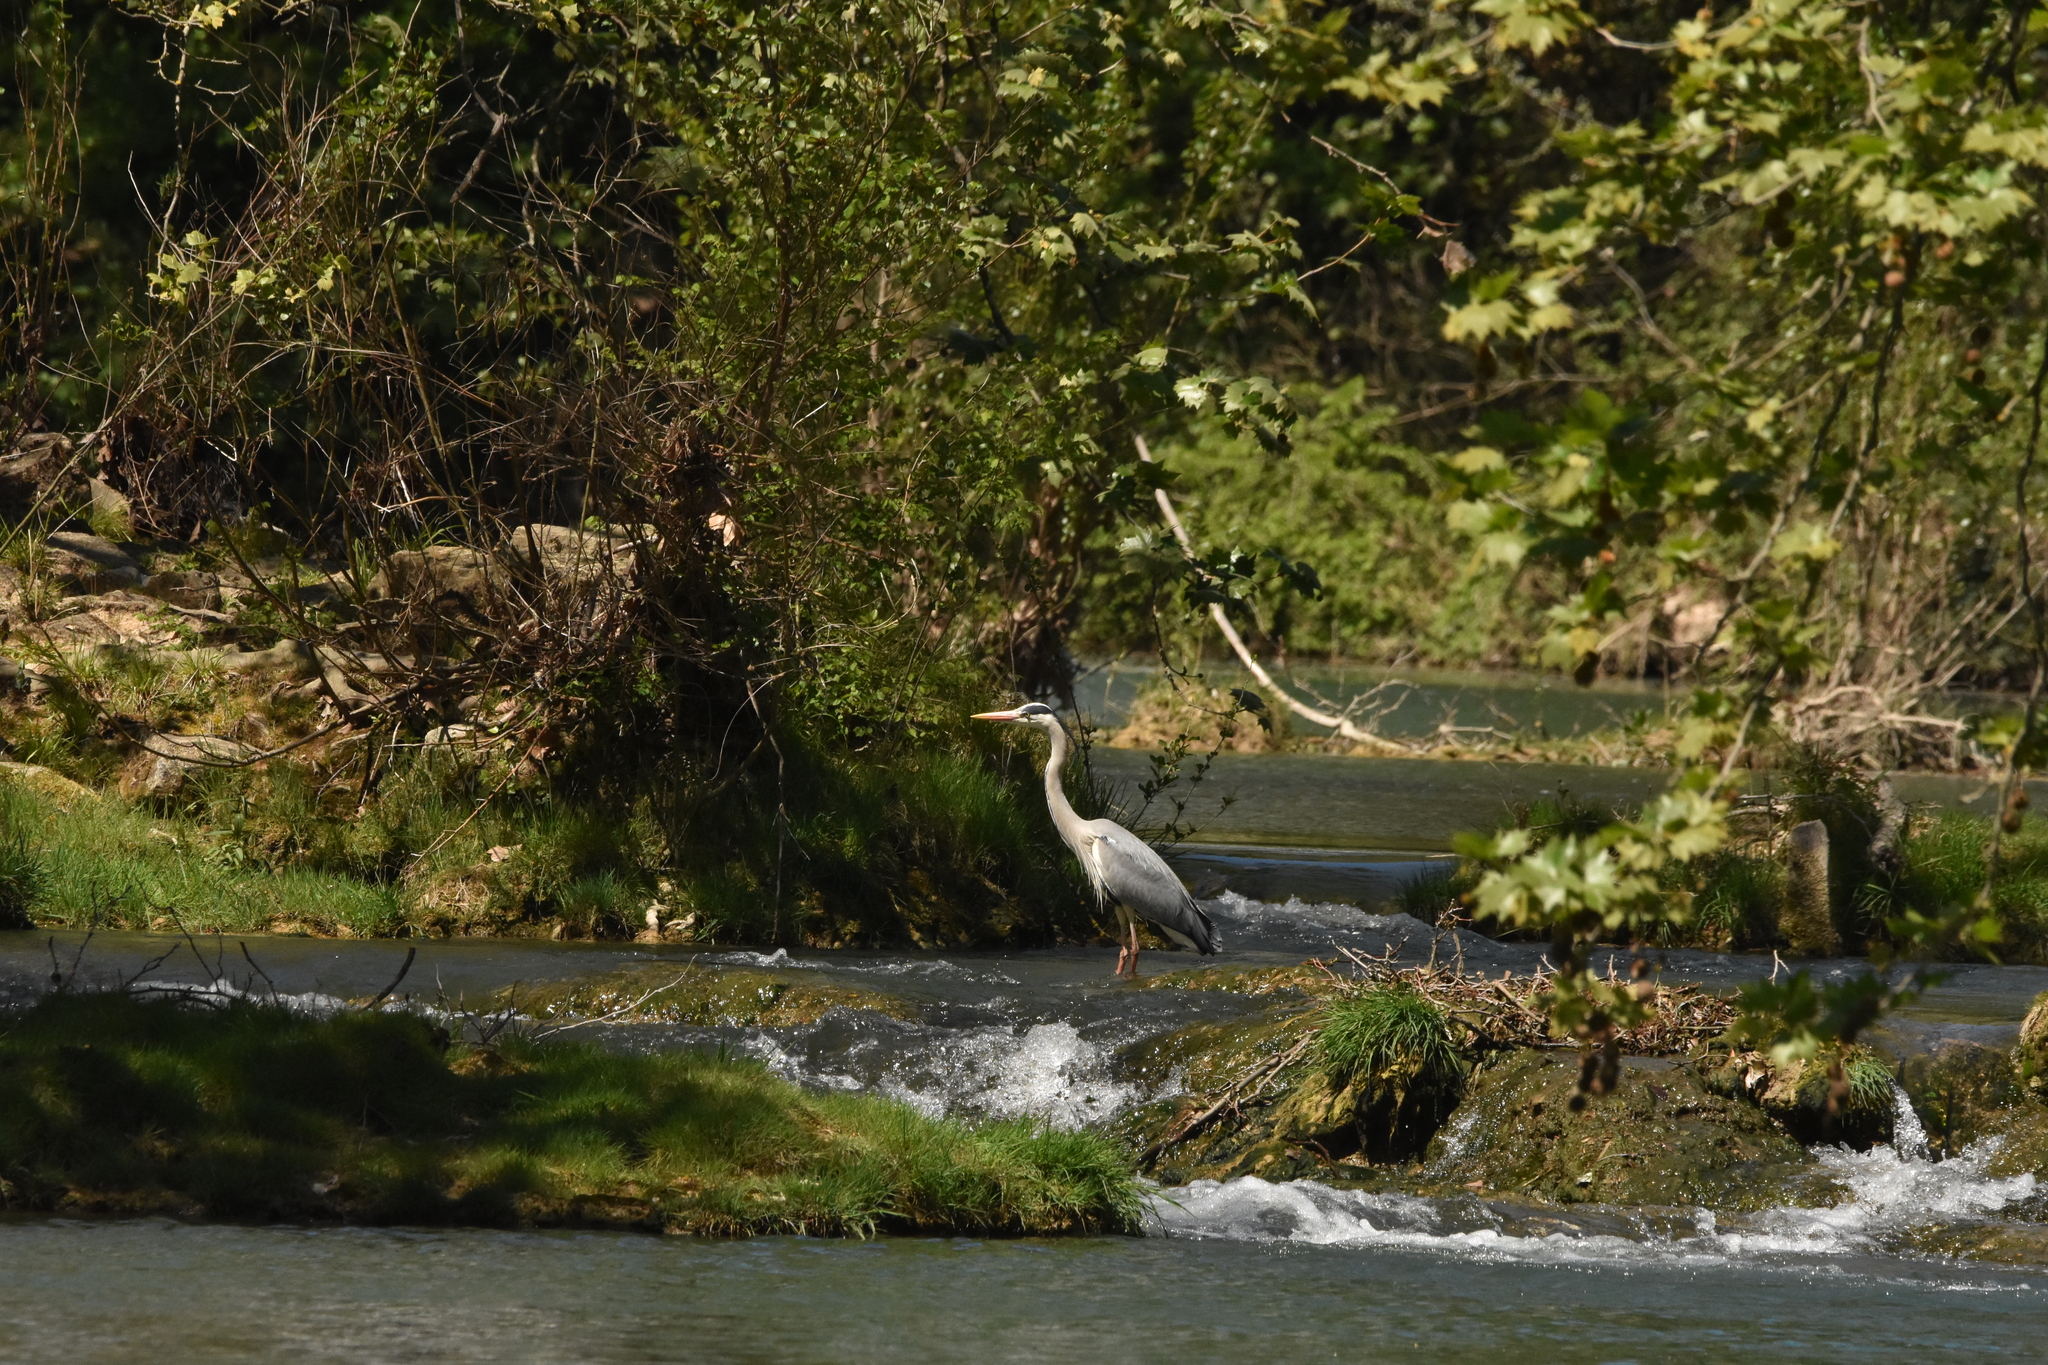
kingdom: Animalia
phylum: Chordata
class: Aves
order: Pelecaniformes
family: Ardeidae
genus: Ardea
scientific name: Ardea cinerea
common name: Grey heron
